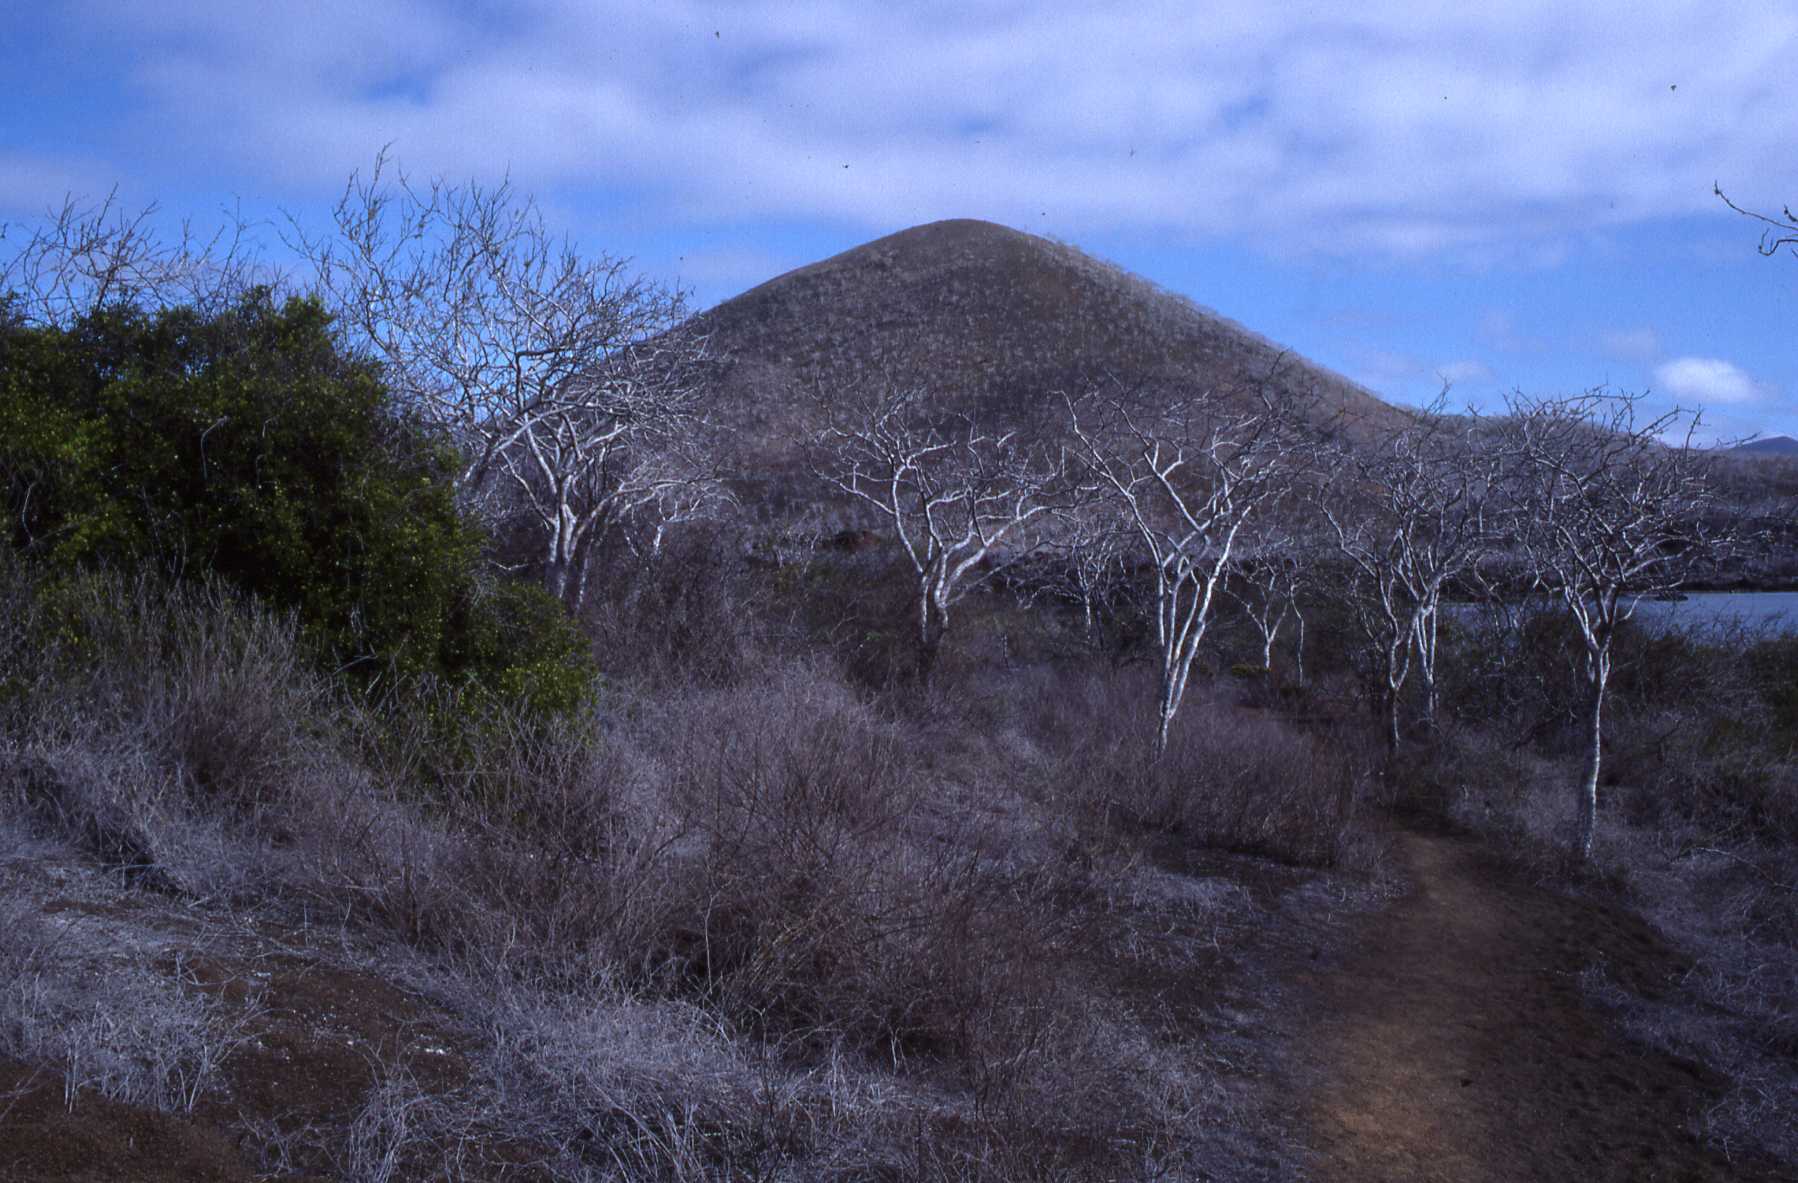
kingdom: Plantae
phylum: Tracheophyta
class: Magnoliopsida
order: Sapindales
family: Burseraceae
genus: Bursera
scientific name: Bursera graveolens
